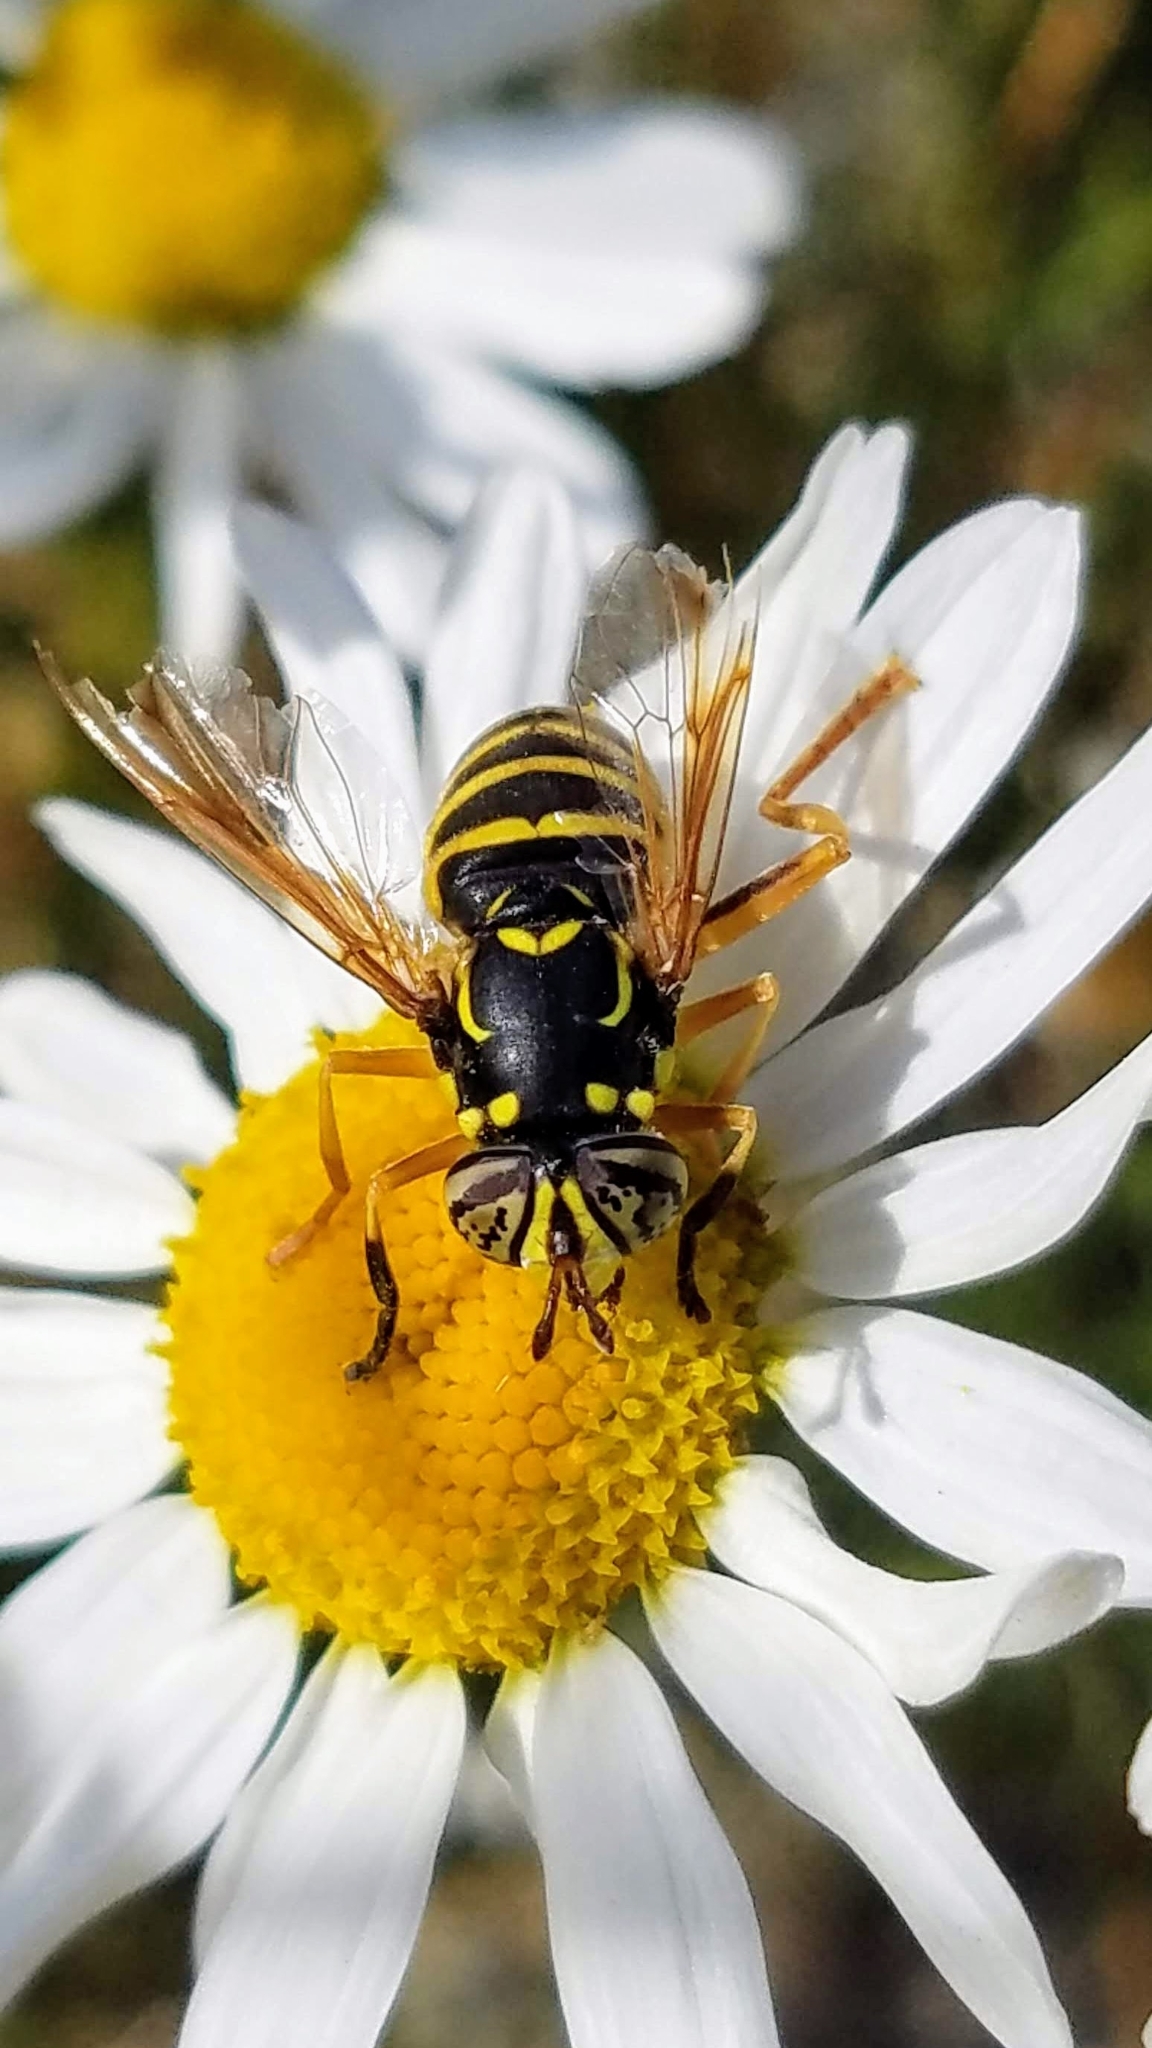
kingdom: Animalia
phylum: Arthropoda
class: Insecta
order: Diptera
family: Syrphidae
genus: Spilomyia
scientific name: Spilomyia liturata
